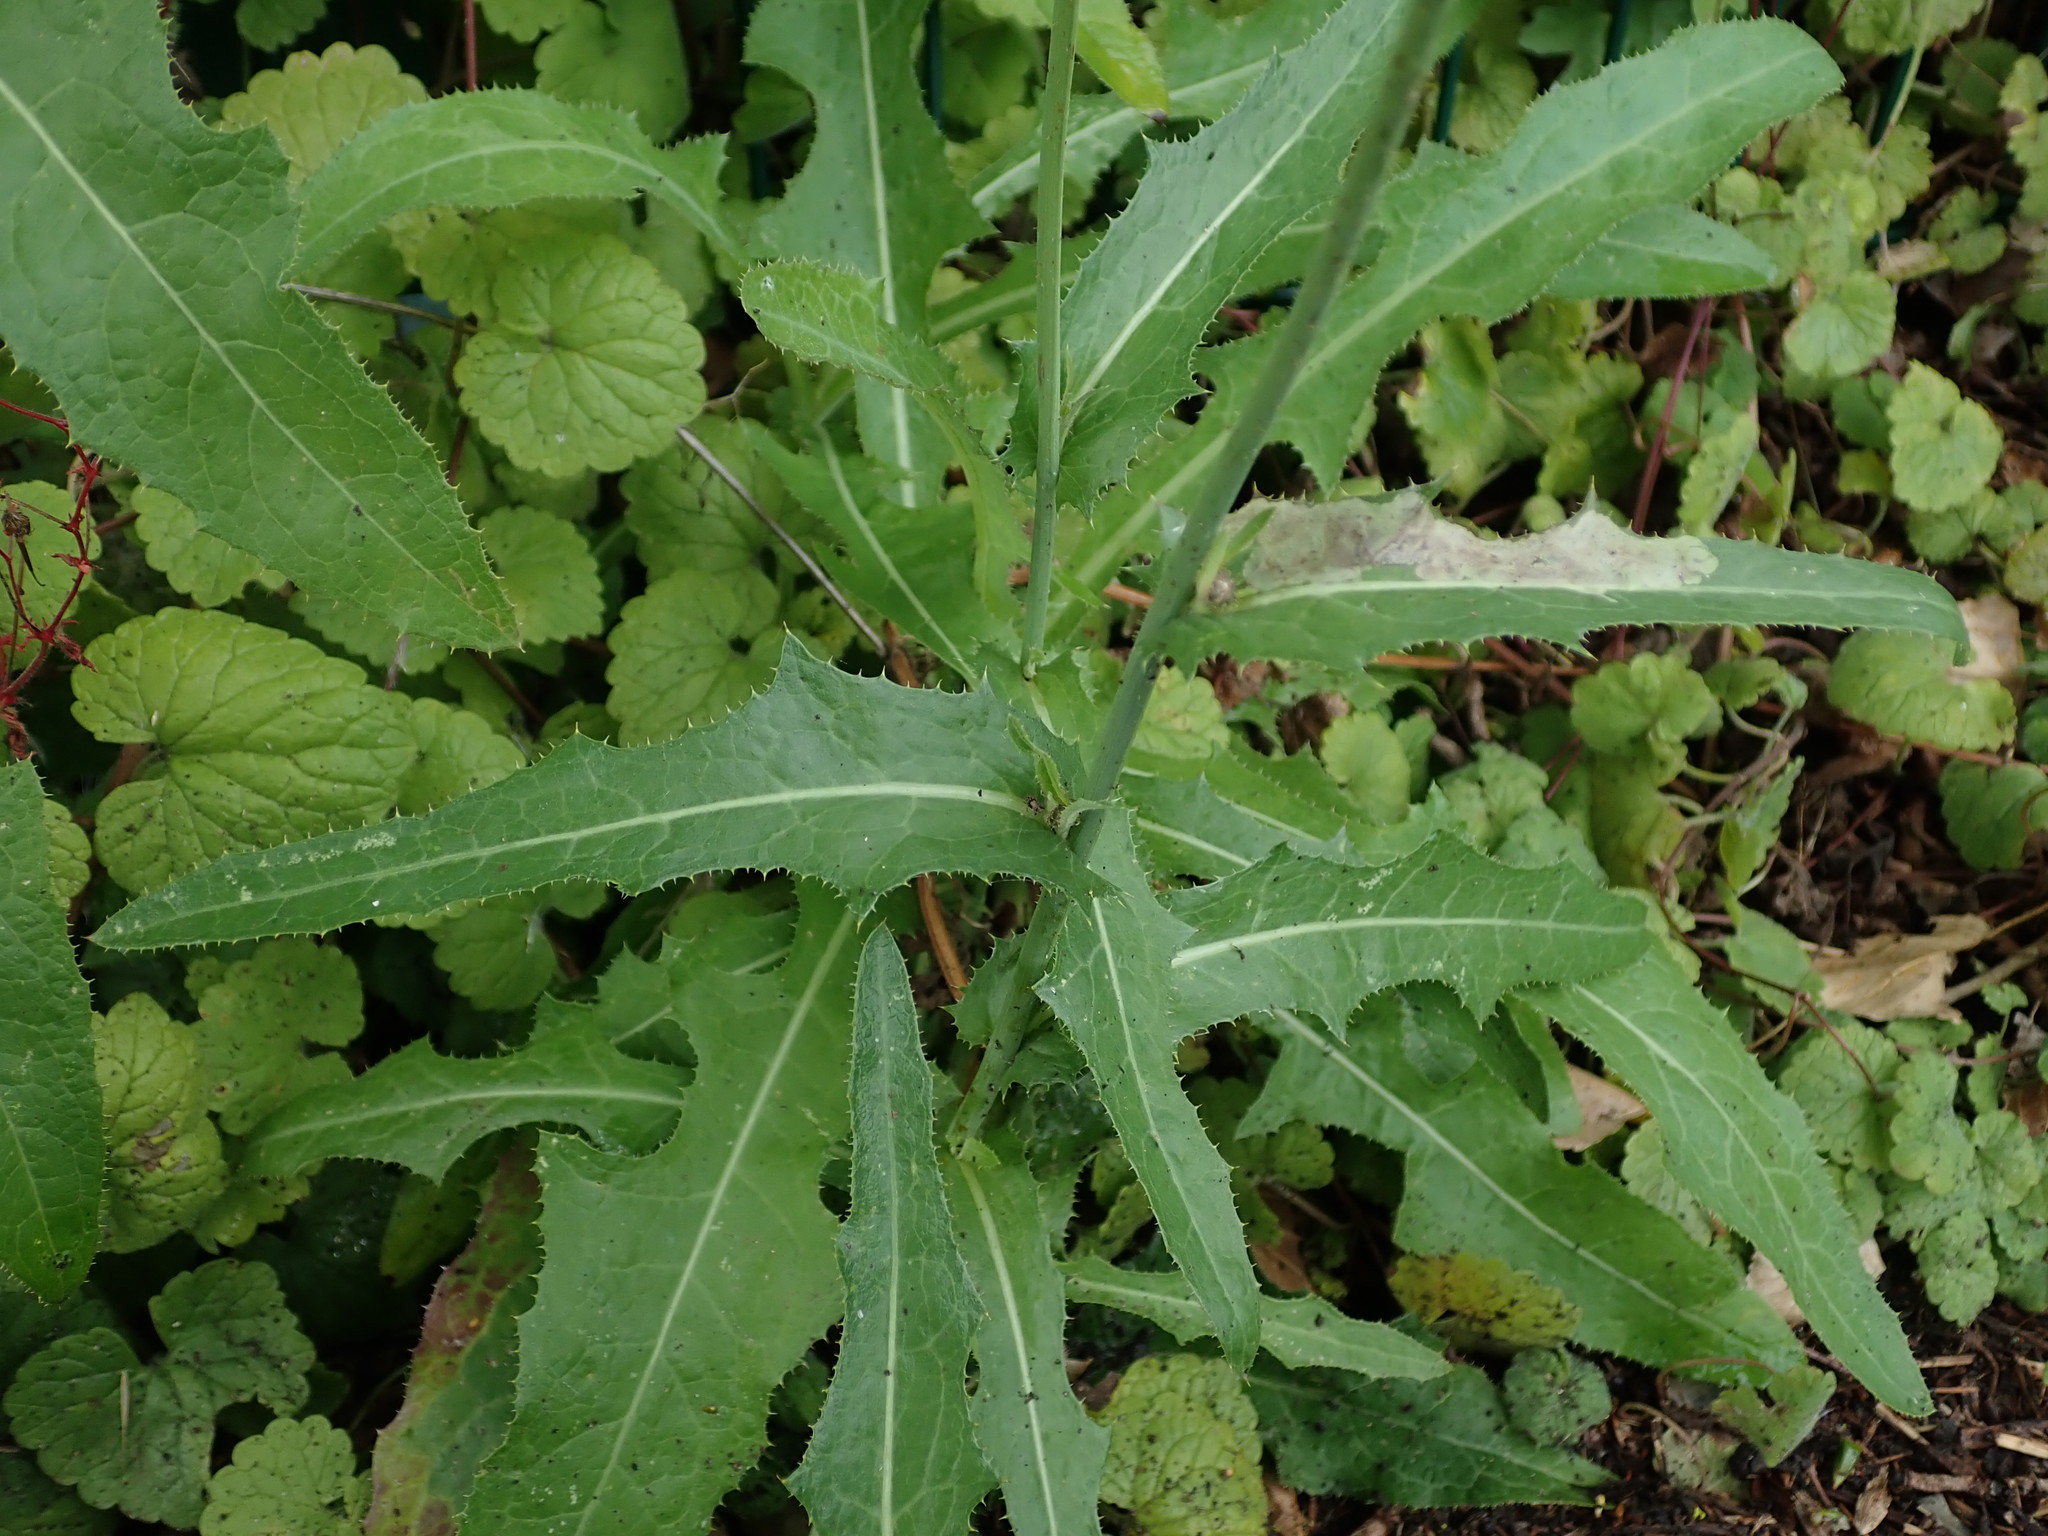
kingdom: Plantae
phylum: Tracheophyta
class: Magnoliopsida
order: Asterales
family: Asteraceae
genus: Sonchus
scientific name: Sonchus arvensis
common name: Perennial sow-thistle
